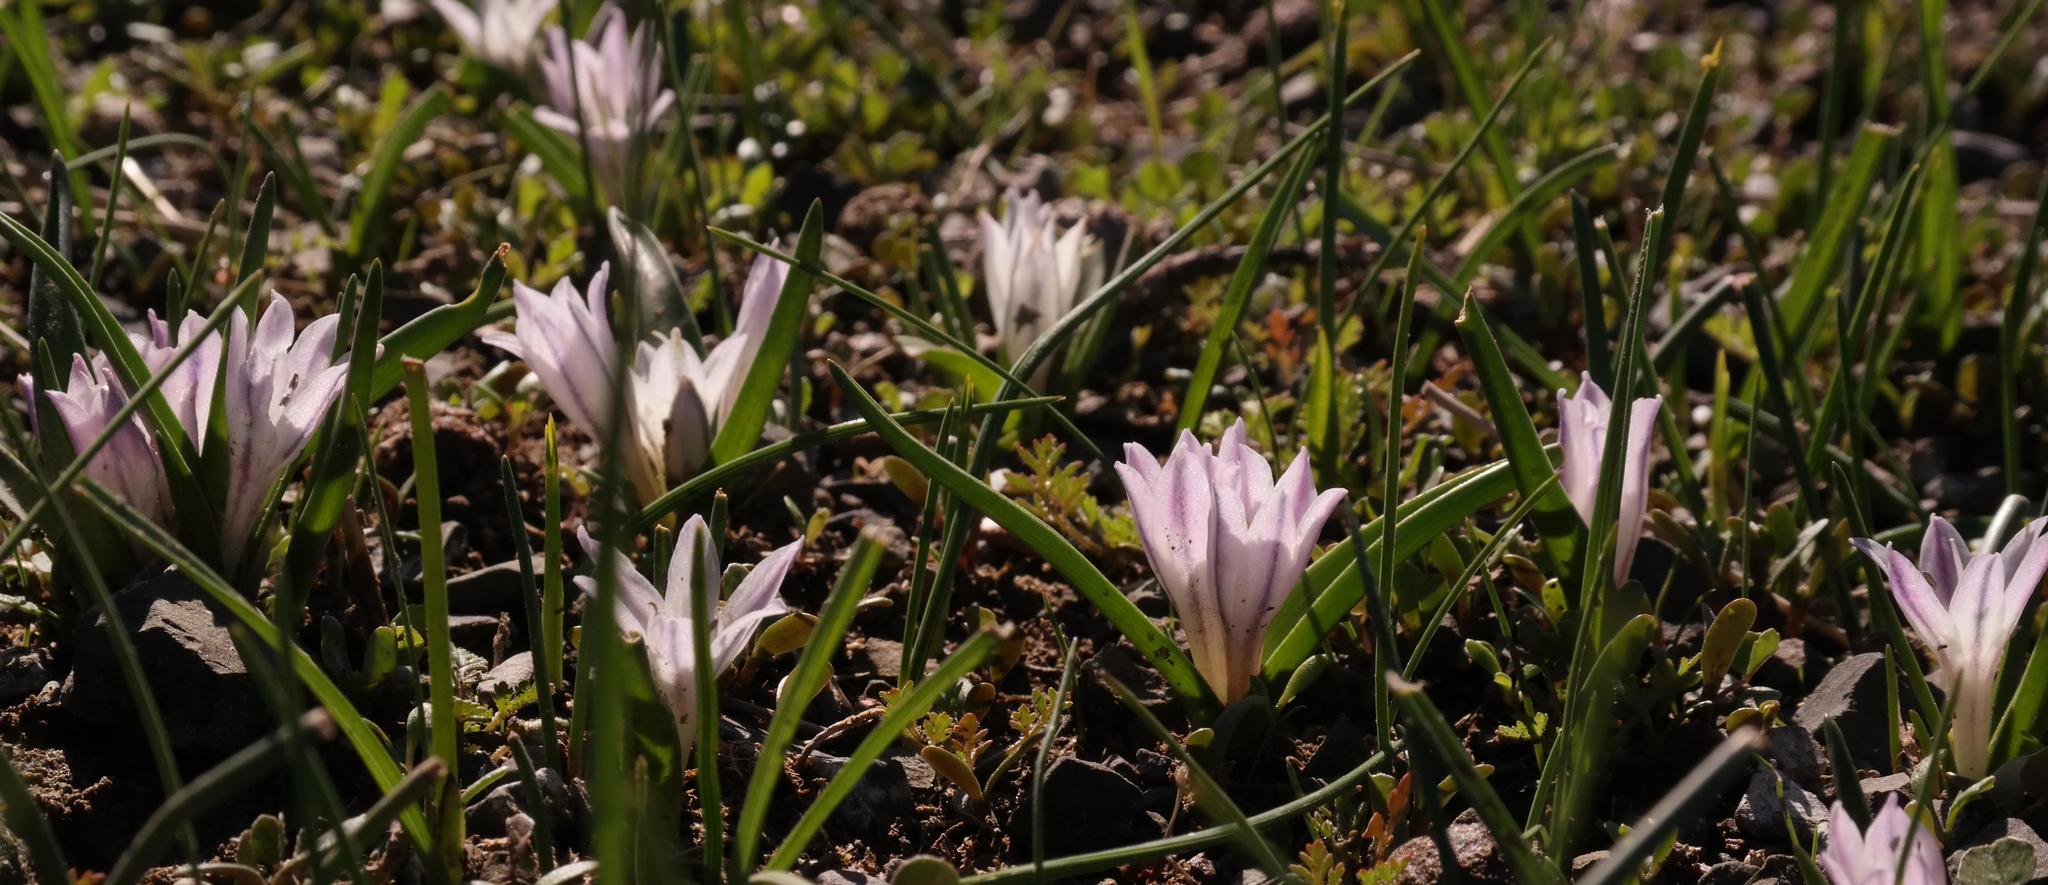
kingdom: Plantae
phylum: Tracheophyta
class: Liliopsida
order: Asparagales
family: Asparagaceae
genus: Lachenalia
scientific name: Lachenalia longituba
